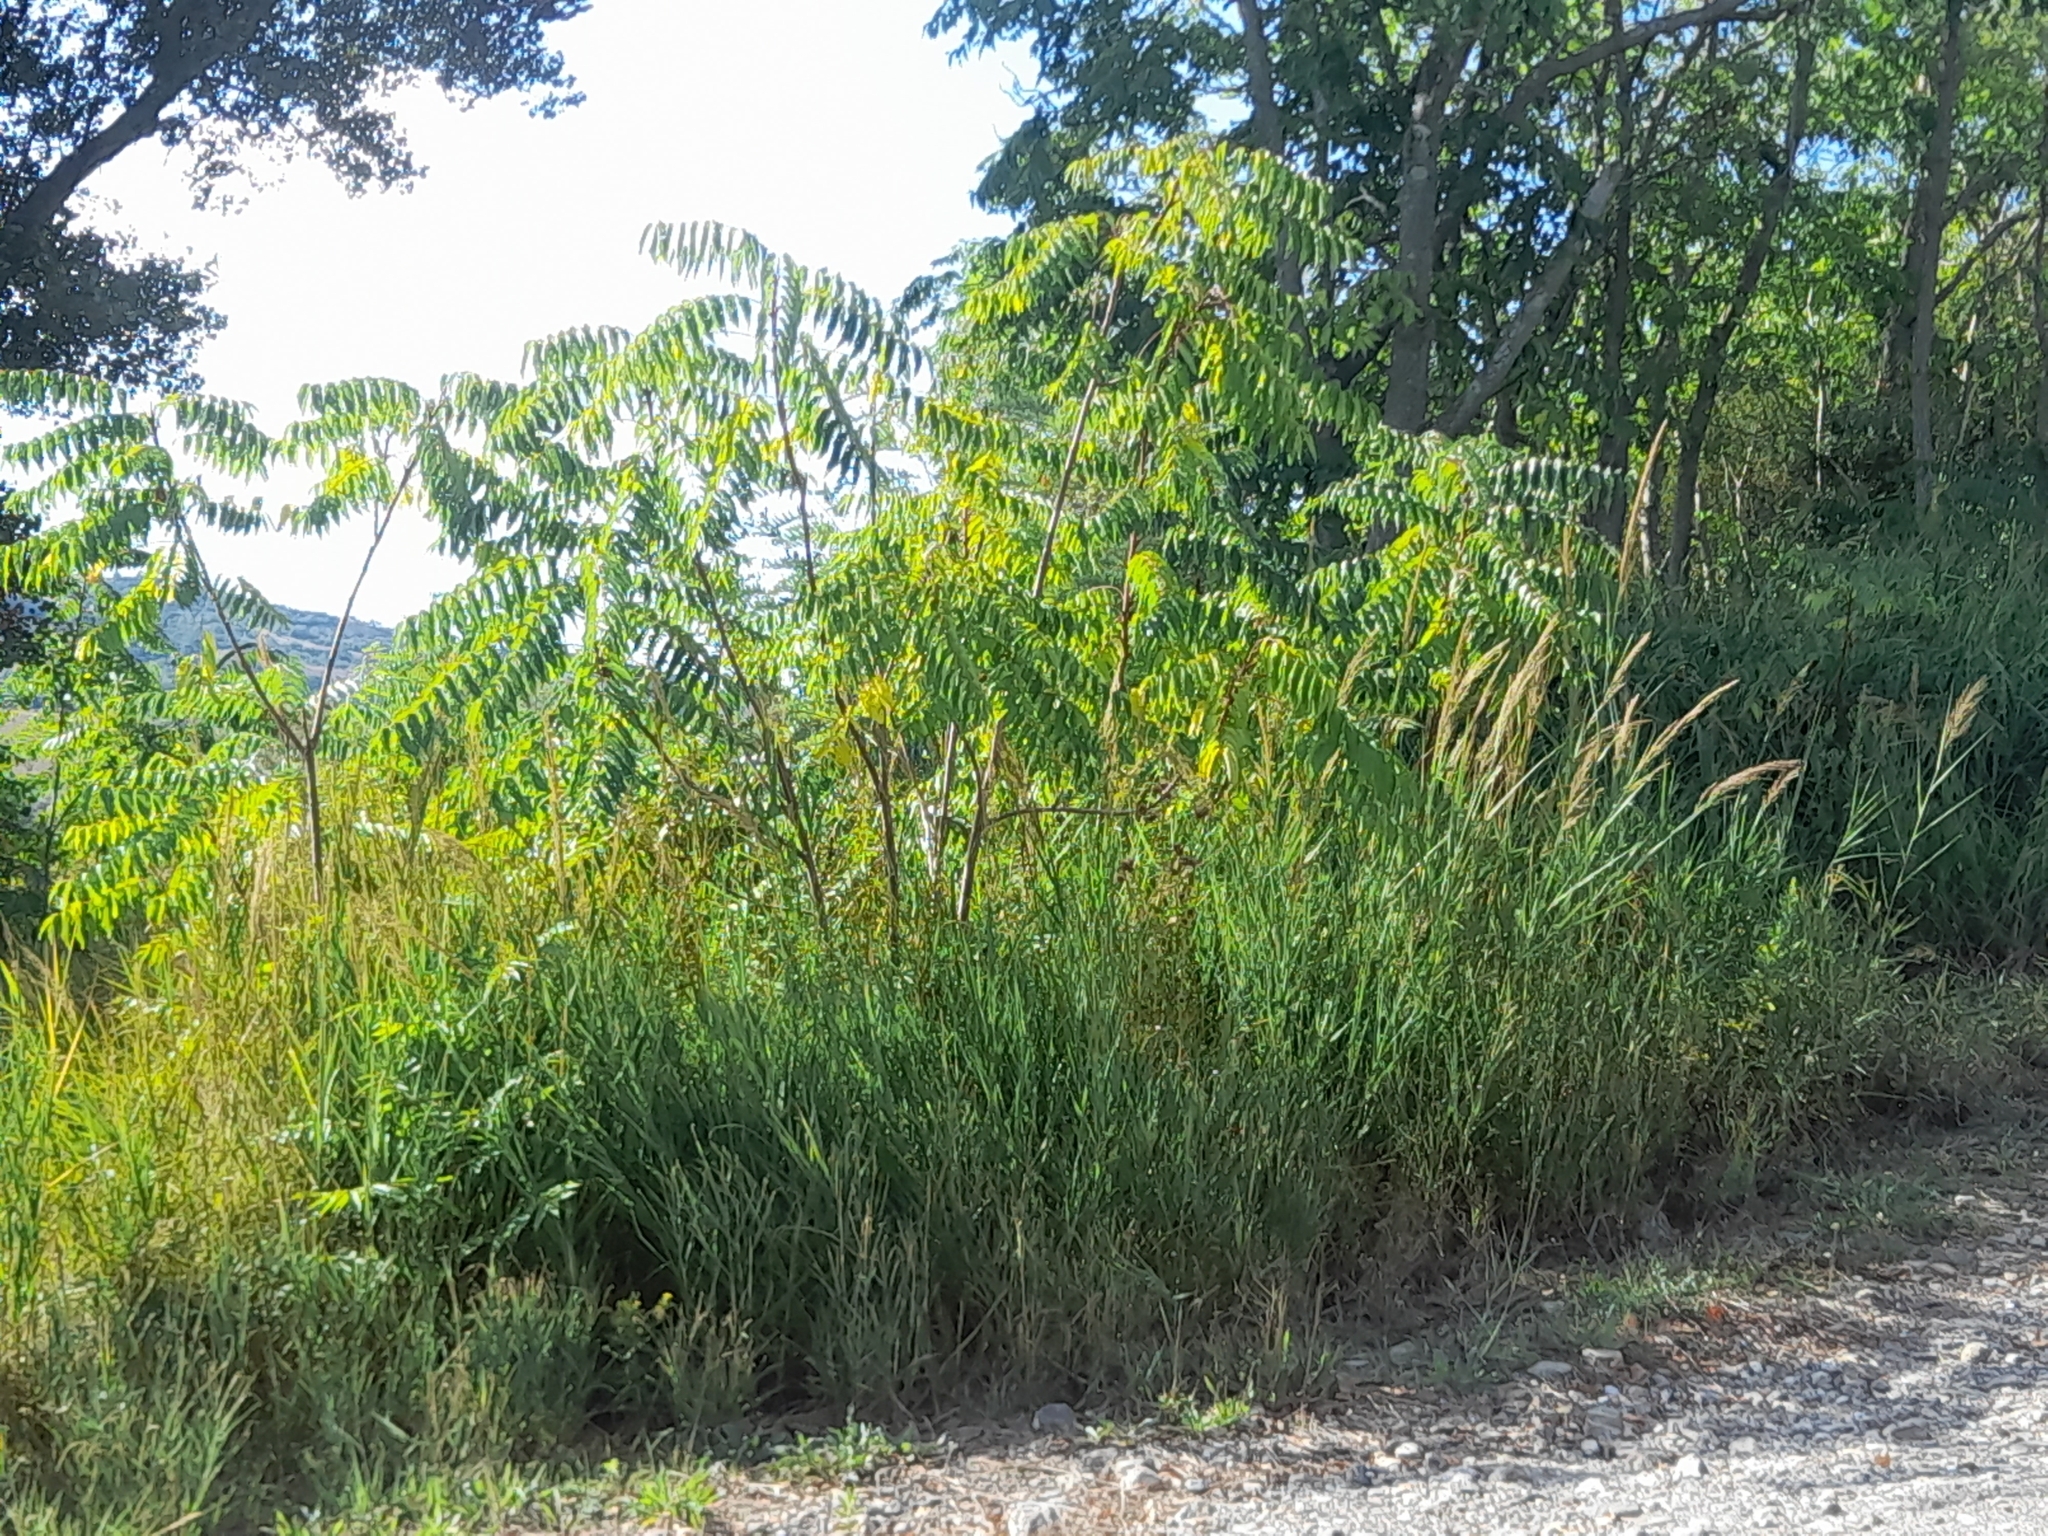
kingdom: Plantae
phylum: Tracheophyta
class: Magnoliopsida
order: Sapindales
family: Simaroubaceae
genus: Ailanthus
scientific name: Ailanthus altissima
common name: Tree-of-heaven
